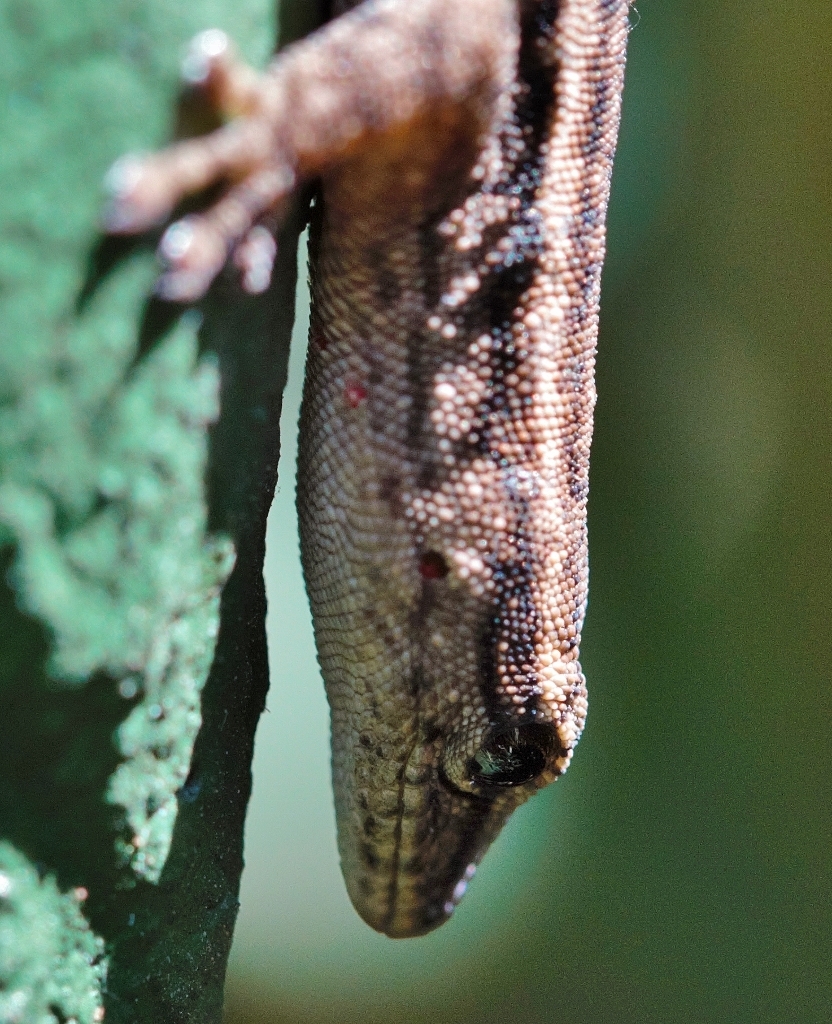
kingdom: Animalia
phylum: Chordata
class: Squamata
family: Gekkonidae
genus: Lygodactylus
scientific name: Lygodactylus capensis
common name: Cape dwarf gecko
